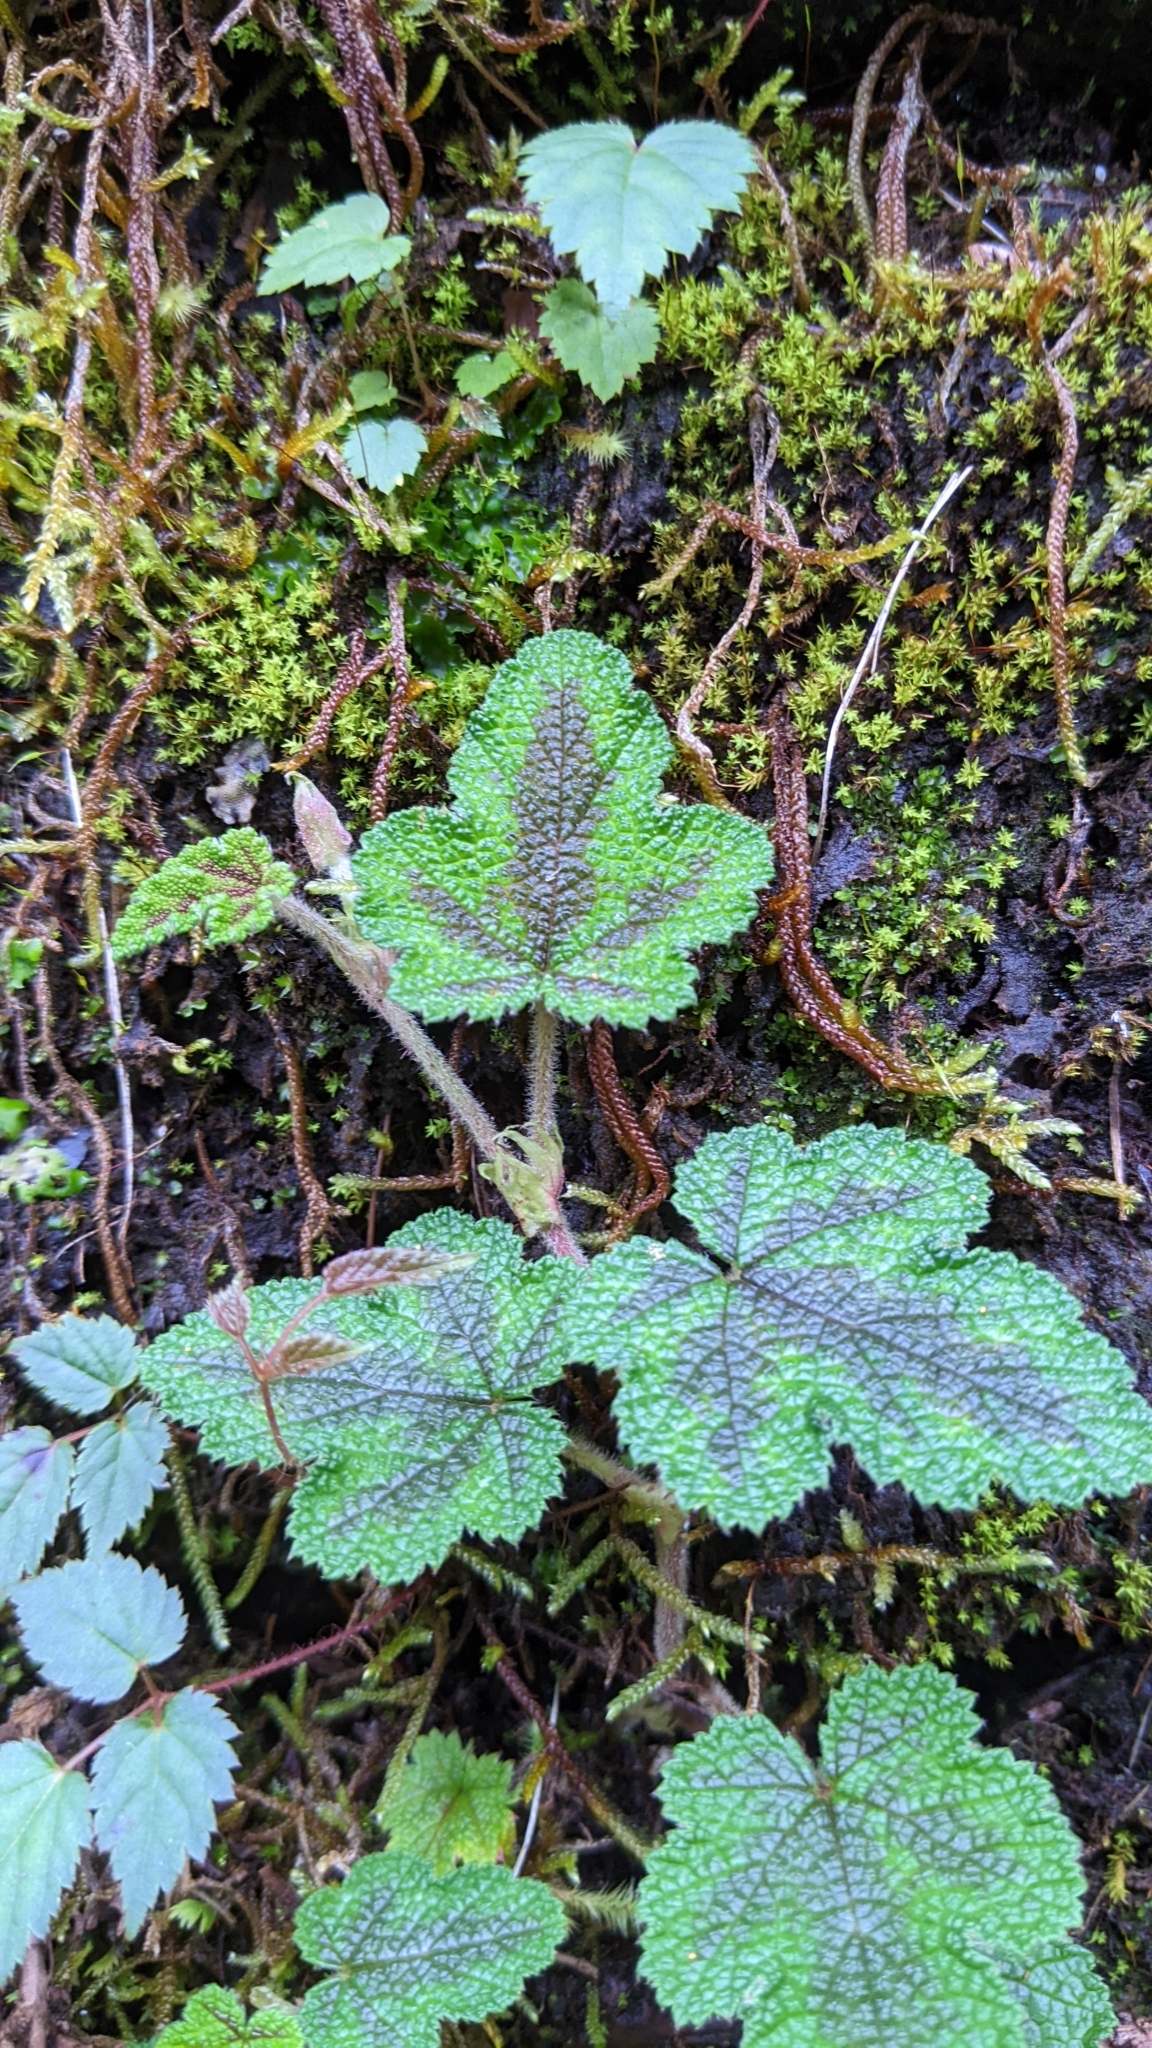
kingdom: Plantae
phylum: Tracheophyta
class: Magnoliopsida
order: Rosales
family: Rosaceae
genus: Rubus
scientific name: Rubus formosensis
